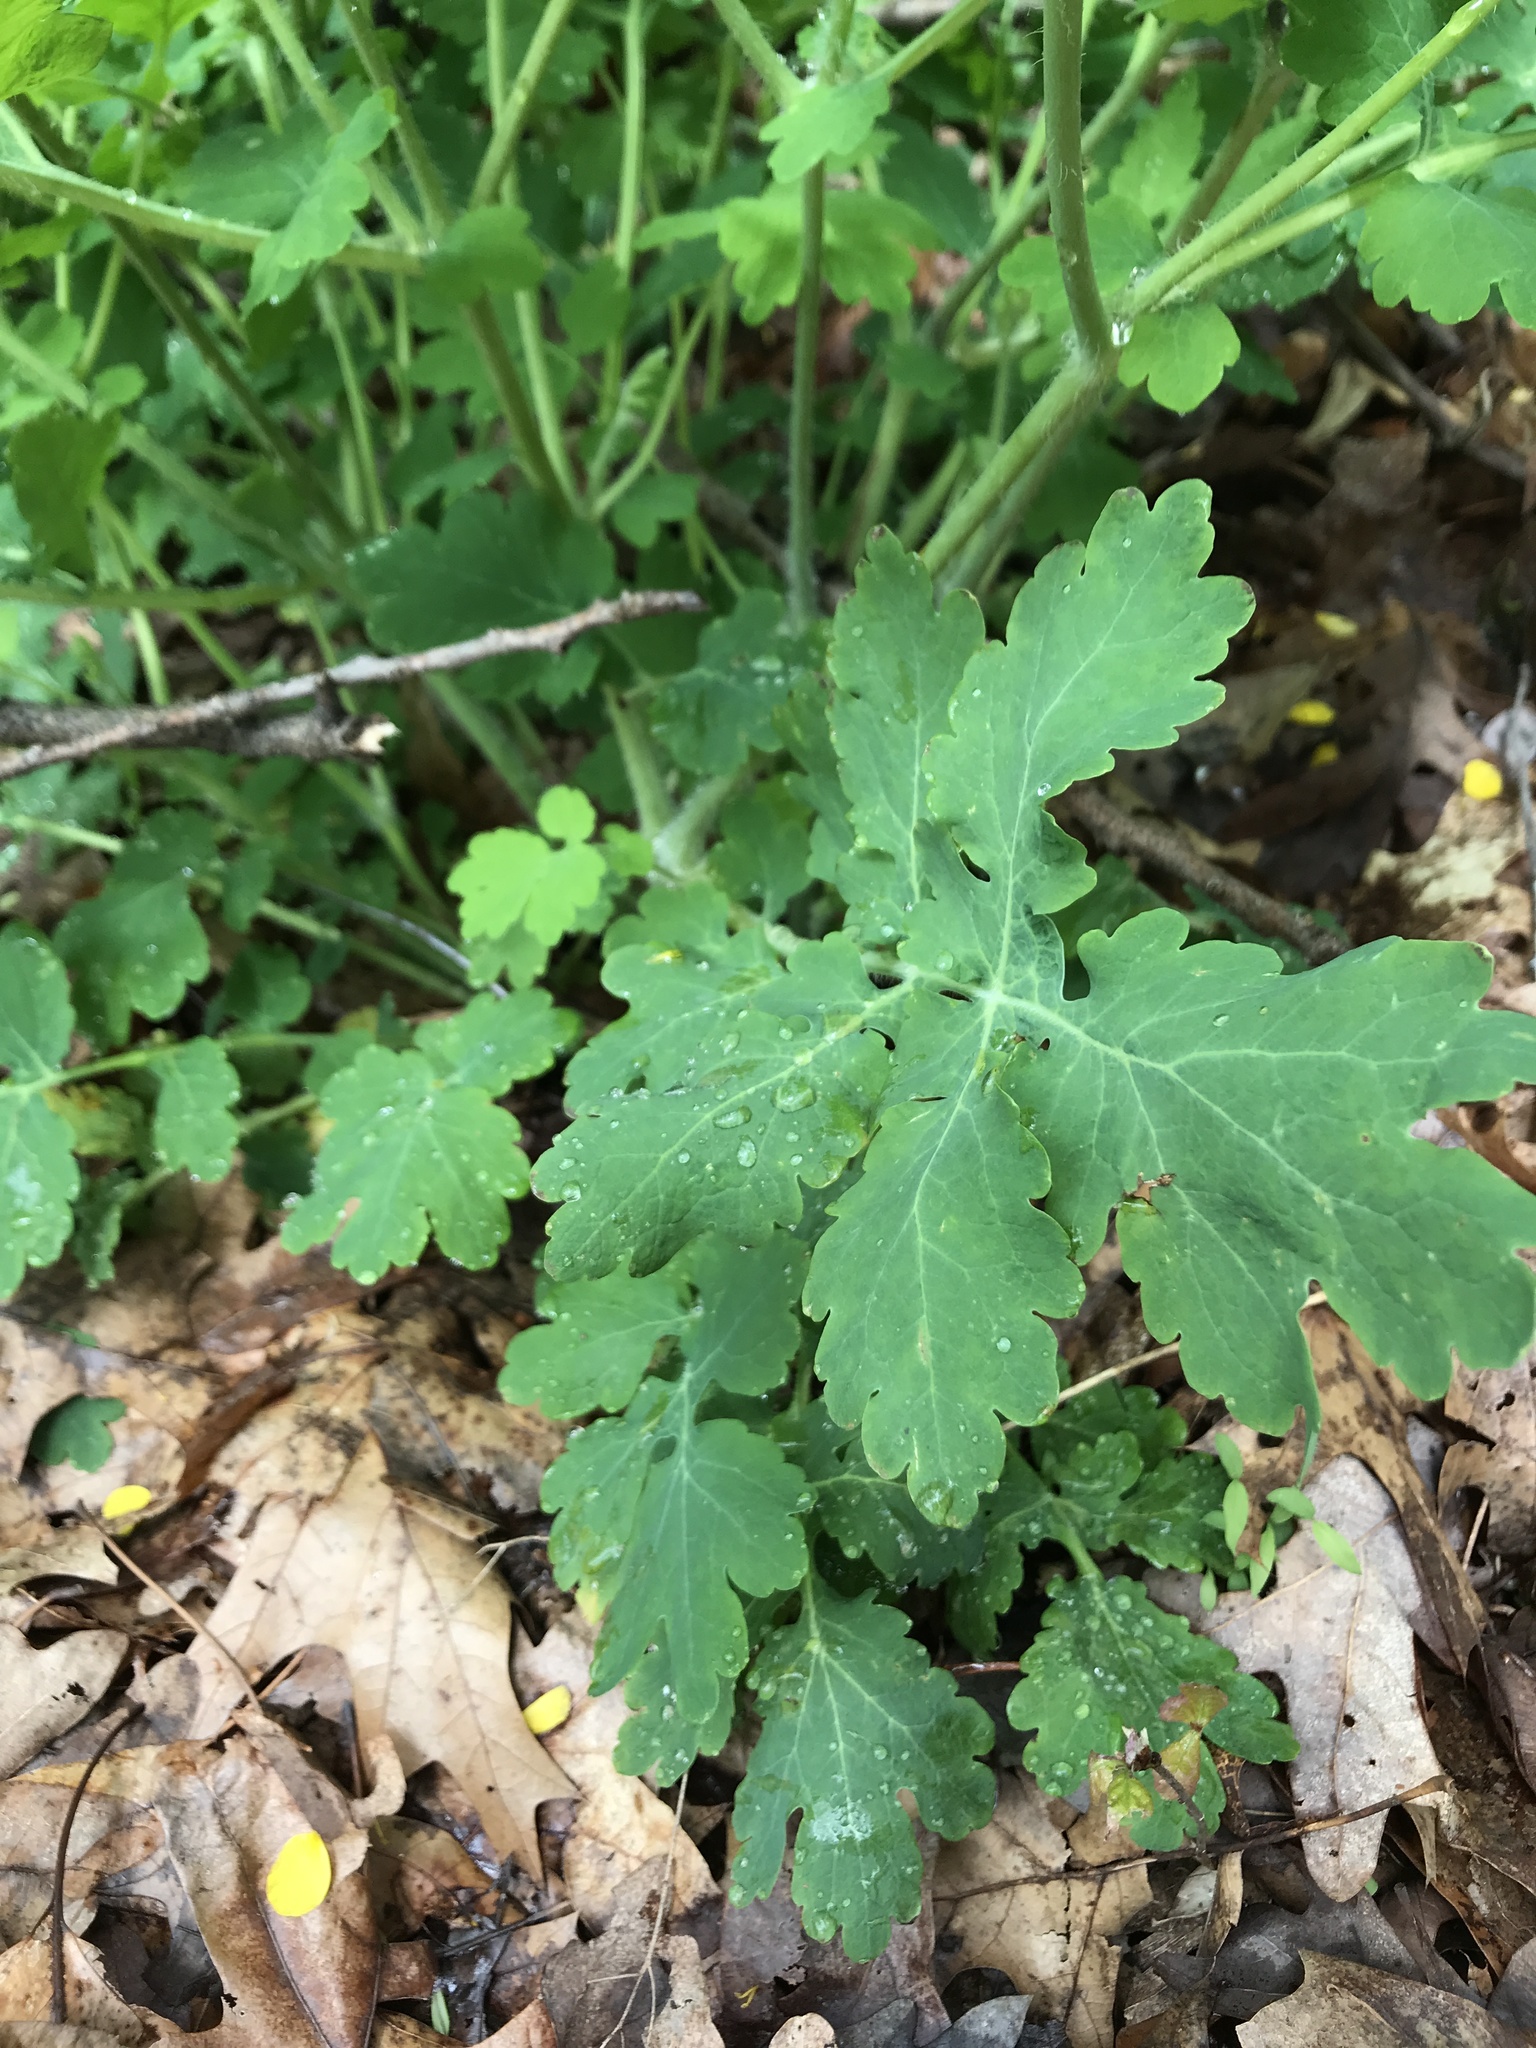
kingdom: Plantae
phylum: Tracheophyta
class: Magnoliopsida
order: Ranunculales
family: Papaveraceae
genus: Chelidonium
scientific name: Chelidonium majus
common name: Greater celandine
